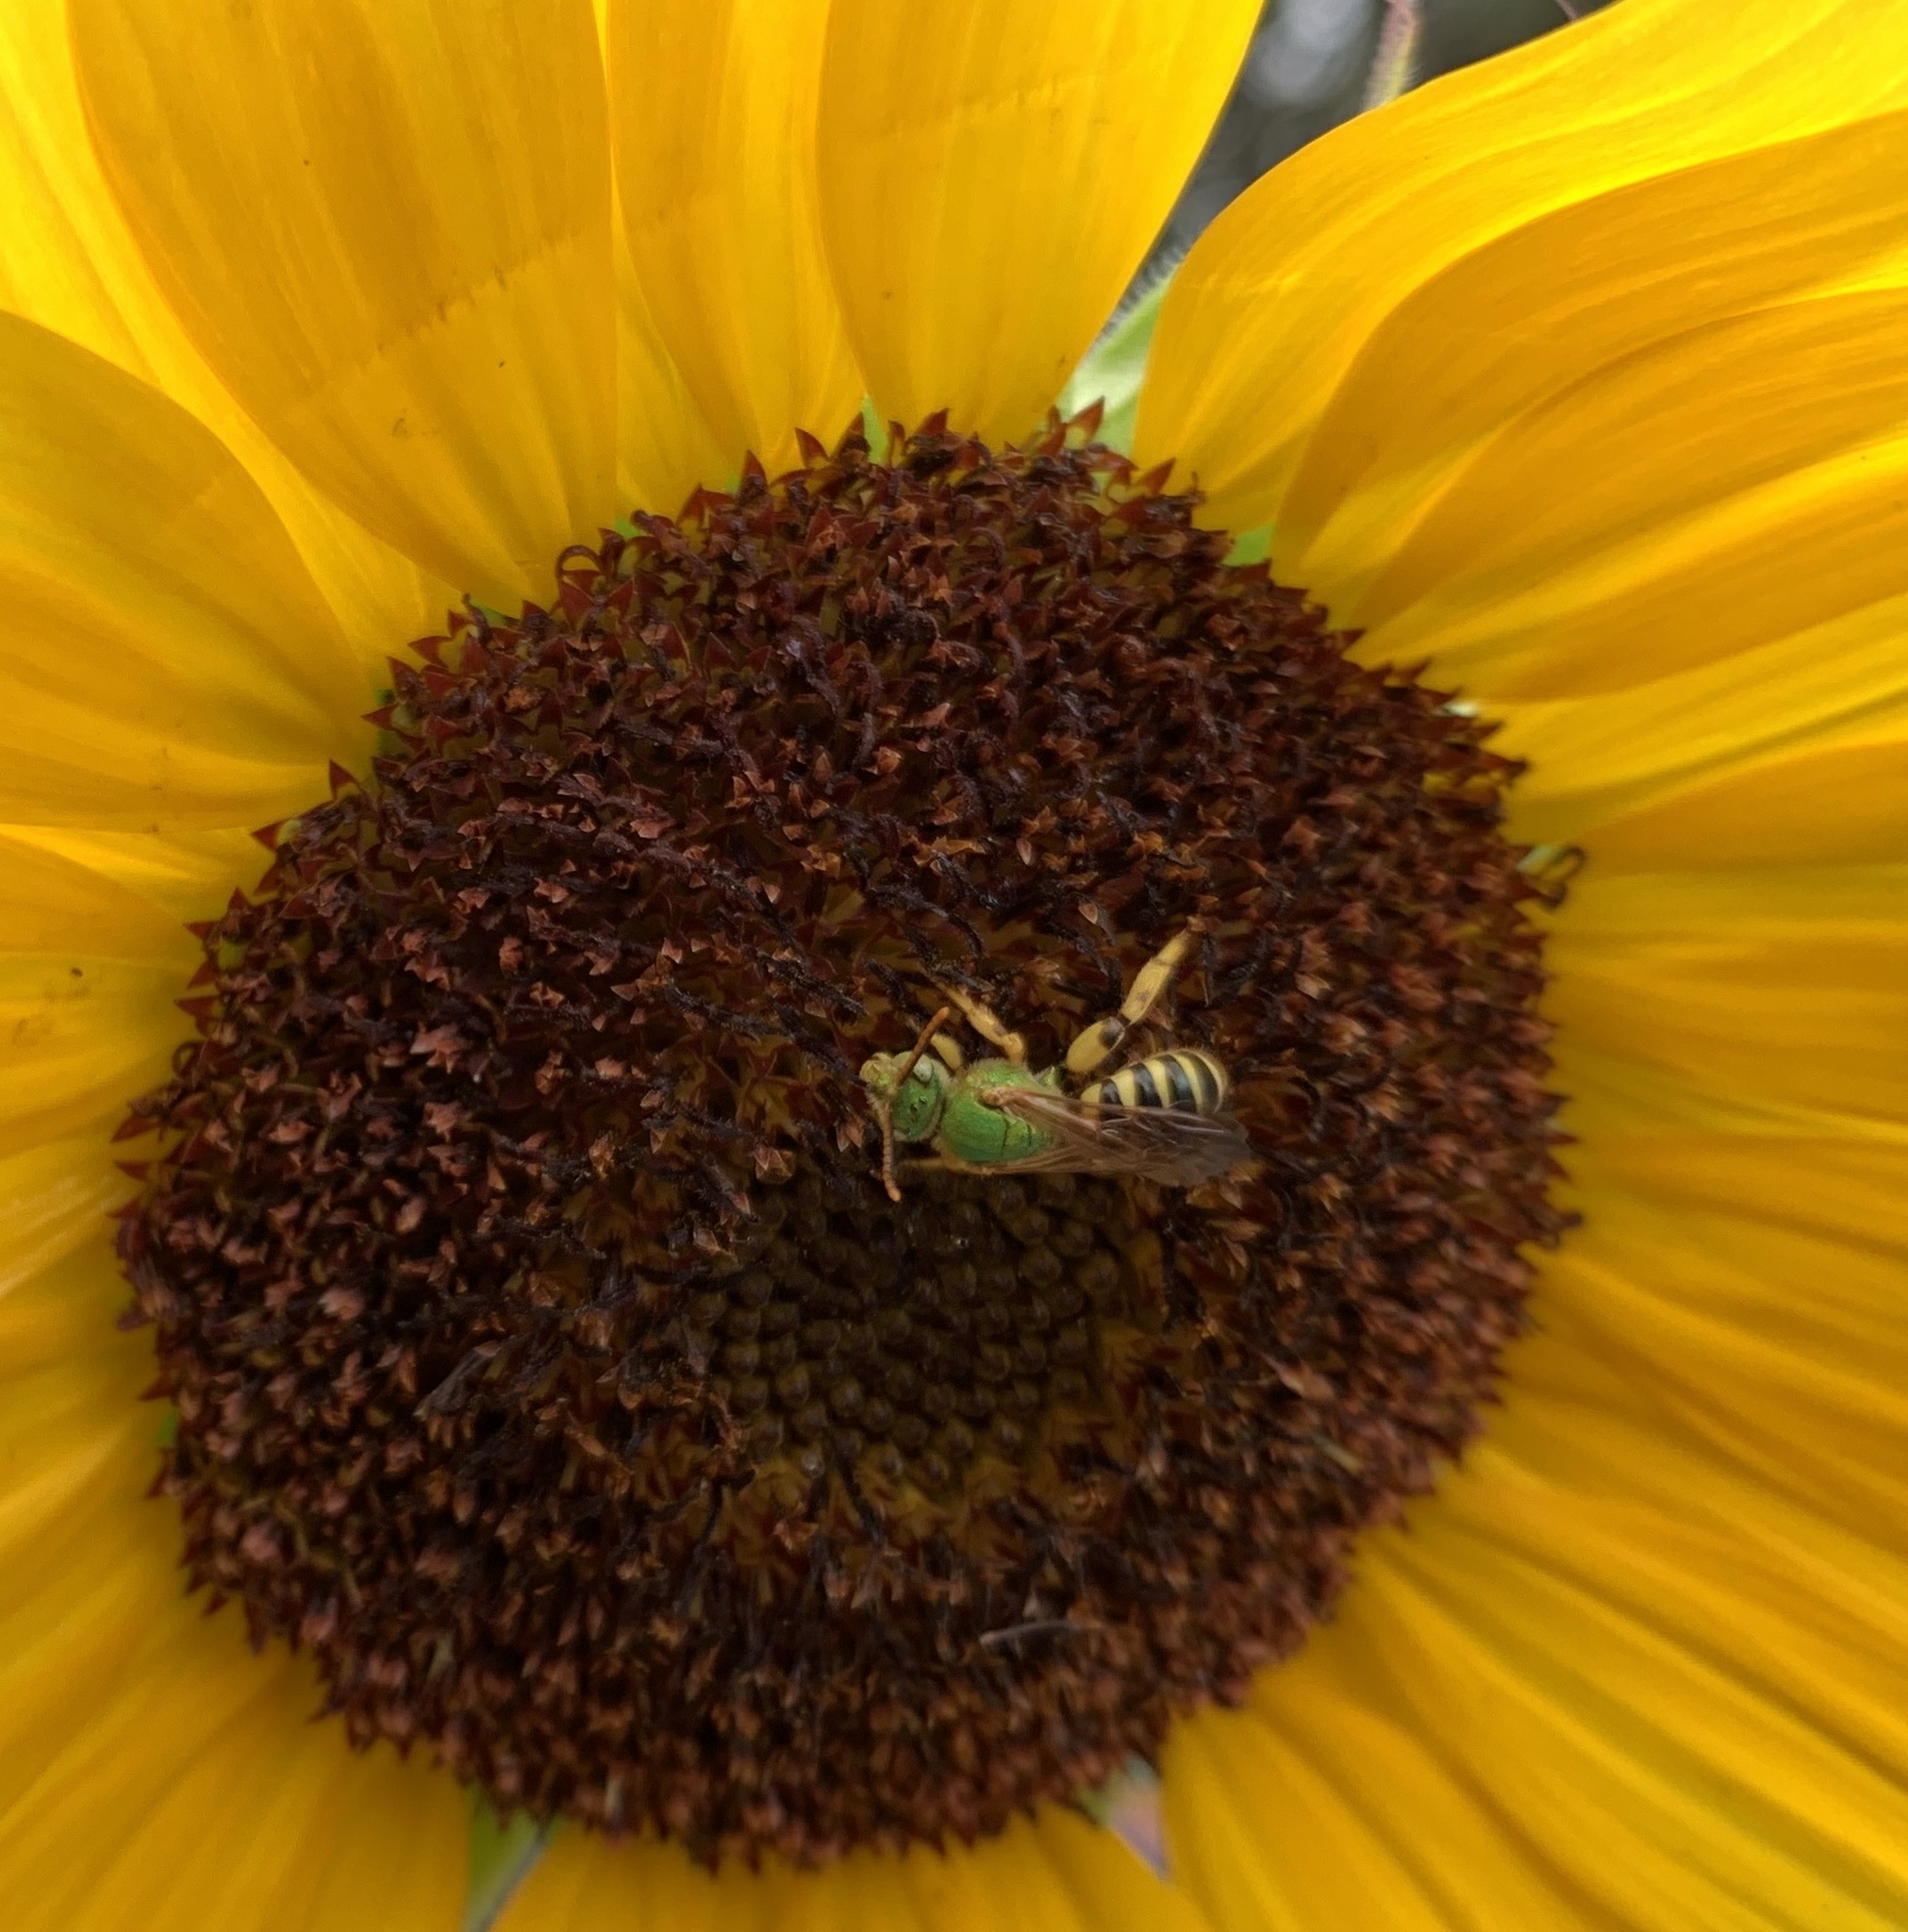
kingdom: Animalia
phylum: Arthropoda
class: Insecta
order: Hymenoptera
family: Halictidae
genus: Agapostemon
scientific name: Agapostemon splendens
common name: Brown-winged striped sweat bee
